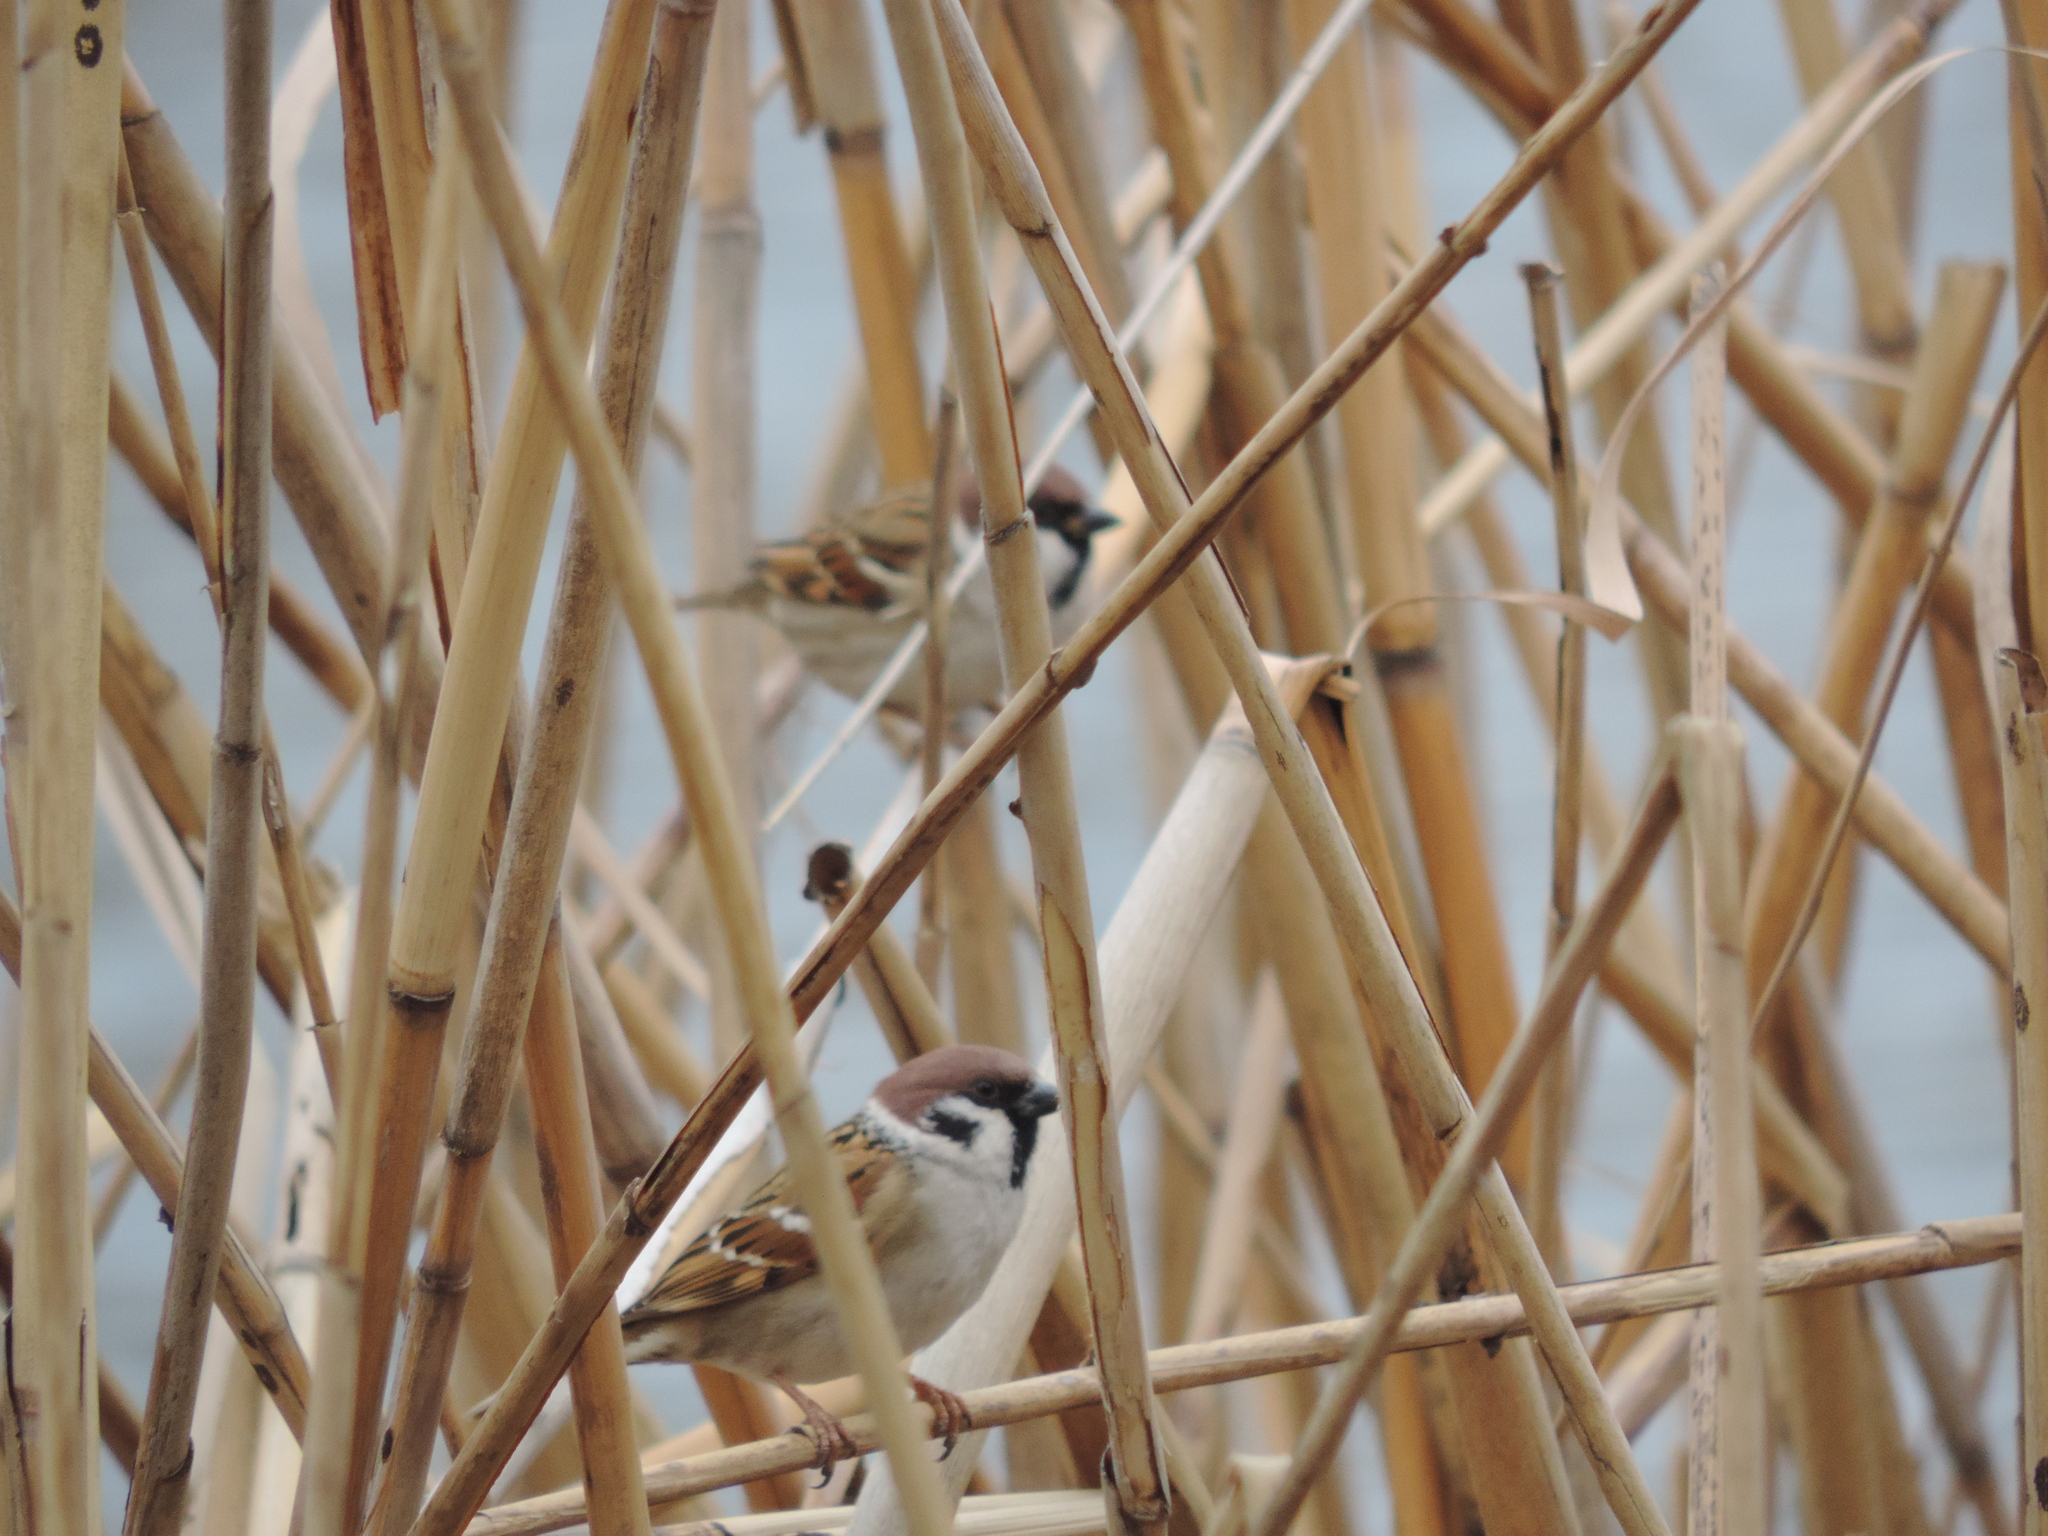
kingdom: Animalia
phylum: Chordata
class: Aves
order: Passeriformes
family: Passeridae
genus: Passer
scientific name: Passer montanus
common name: Eurasian tree sparrow
